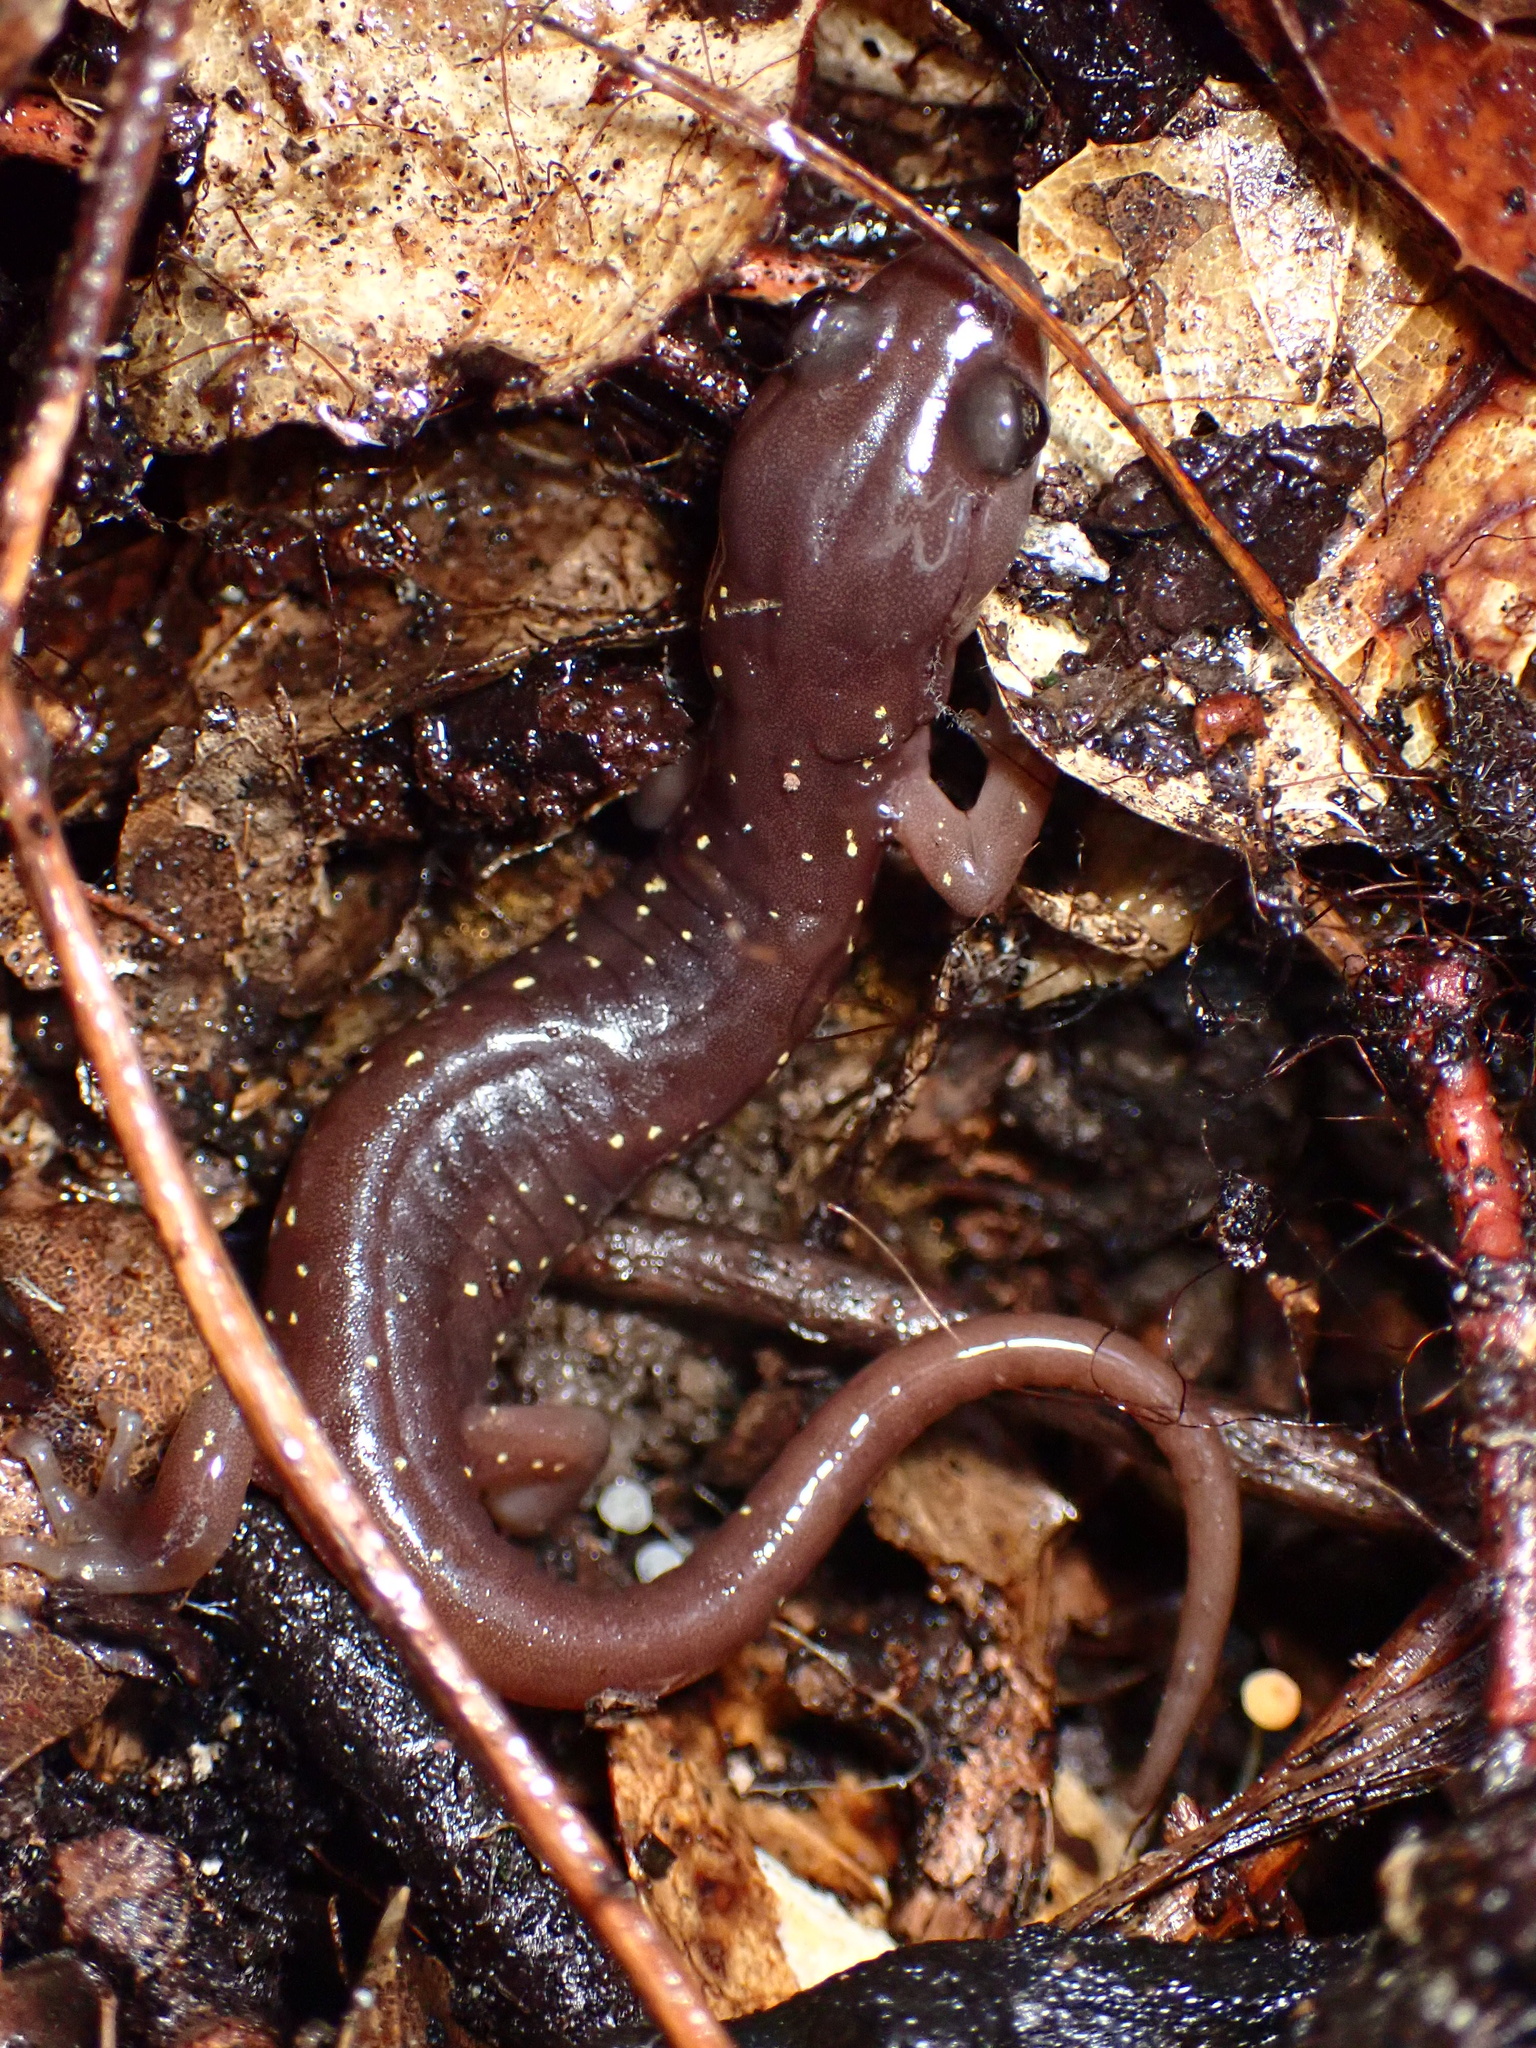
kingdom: Animalia
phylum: Chordata
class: Amphibia
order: Caudata
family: Plethodontidae
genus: Aneides
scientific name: Aneides lugubris
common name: Arboreal salamander
